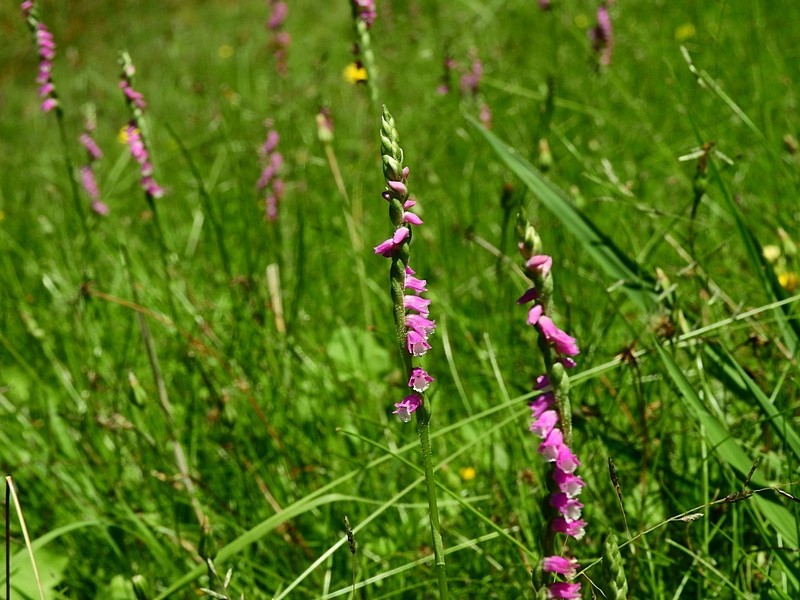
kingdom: Plantae
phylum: Tracheophyta
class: Liliopsida
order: Asparagales
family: Orchidaceae
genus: Spiranthes
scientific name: Spiranthes australis
